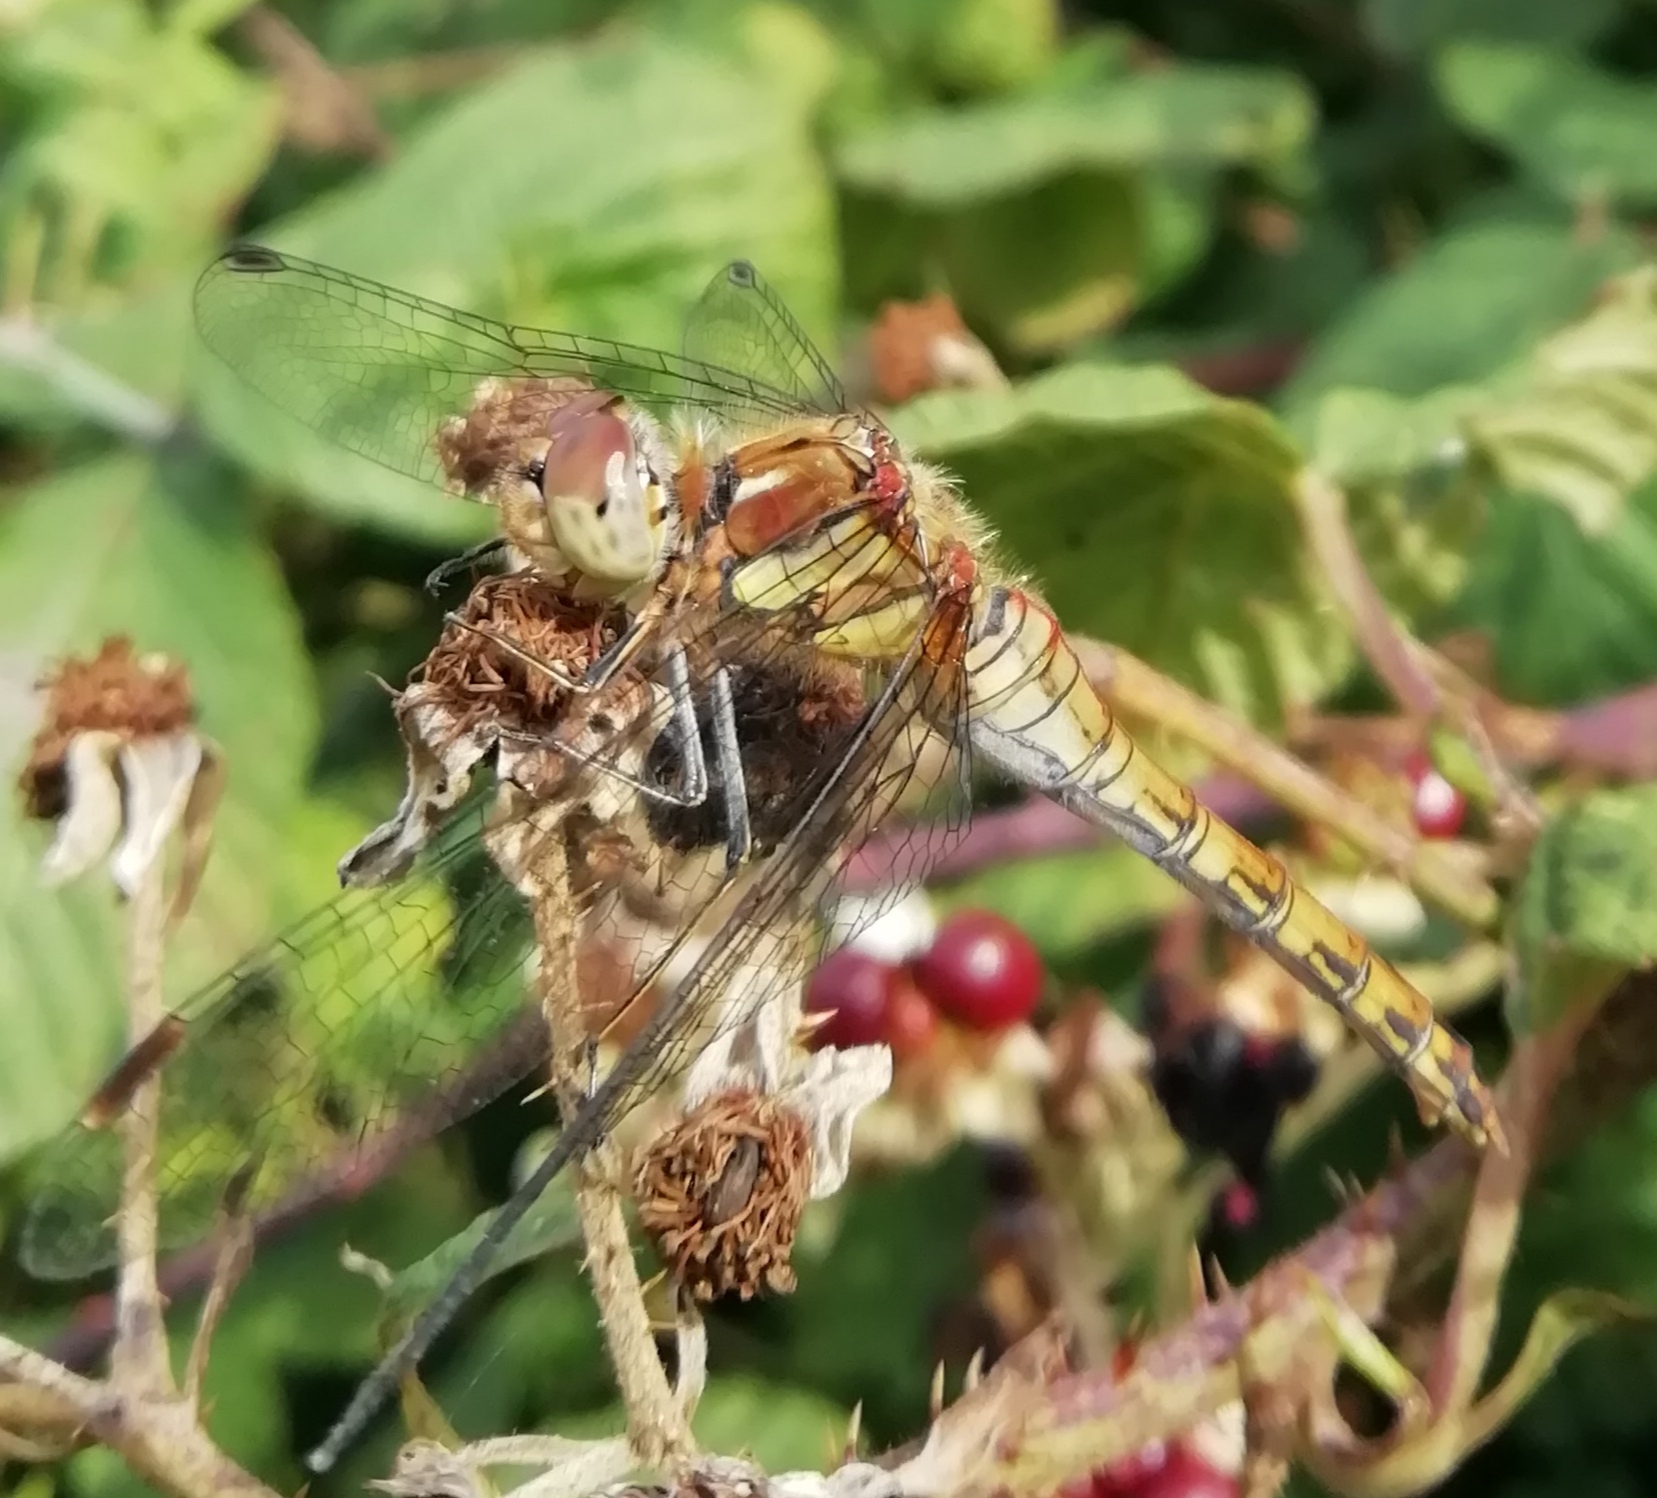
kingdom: Animalia
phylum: Arthropoda
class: Insecta
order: Odonata
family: Libellulidae
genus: Sympetrum
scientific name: Sympetrum striolatum
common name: Common darter
